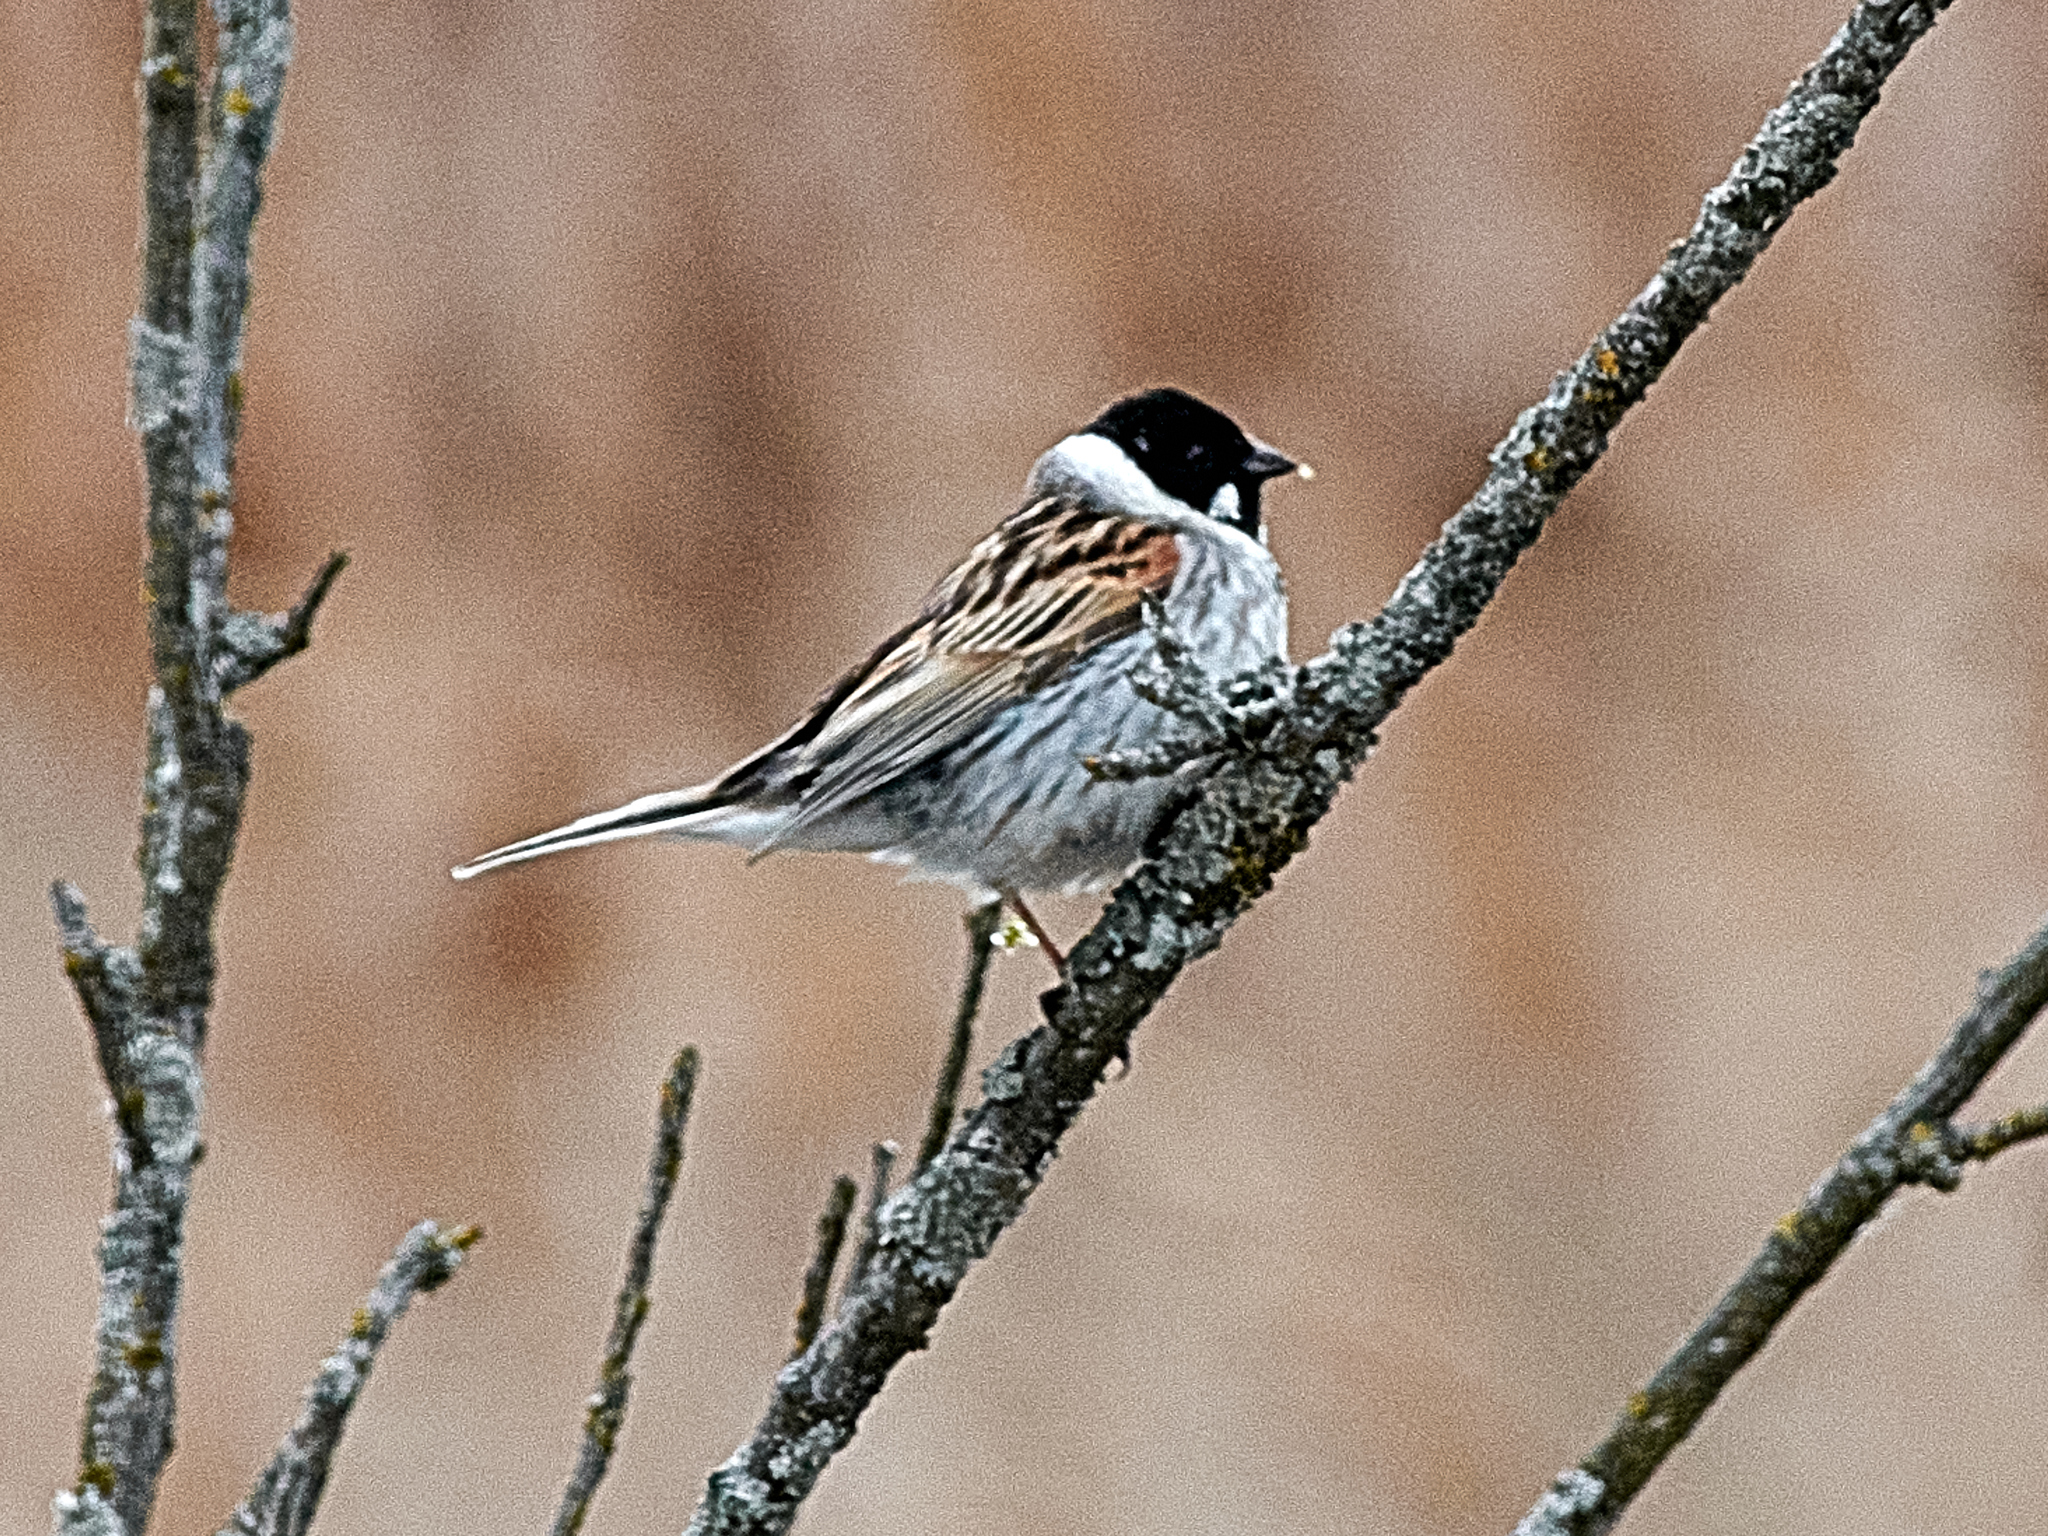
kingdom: Animalia
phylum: Chordata
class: Aves
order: Passeriformes
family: Emberizidae
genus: Emberiza
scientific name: Emberiza schoeniclus
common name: Reed bunting
